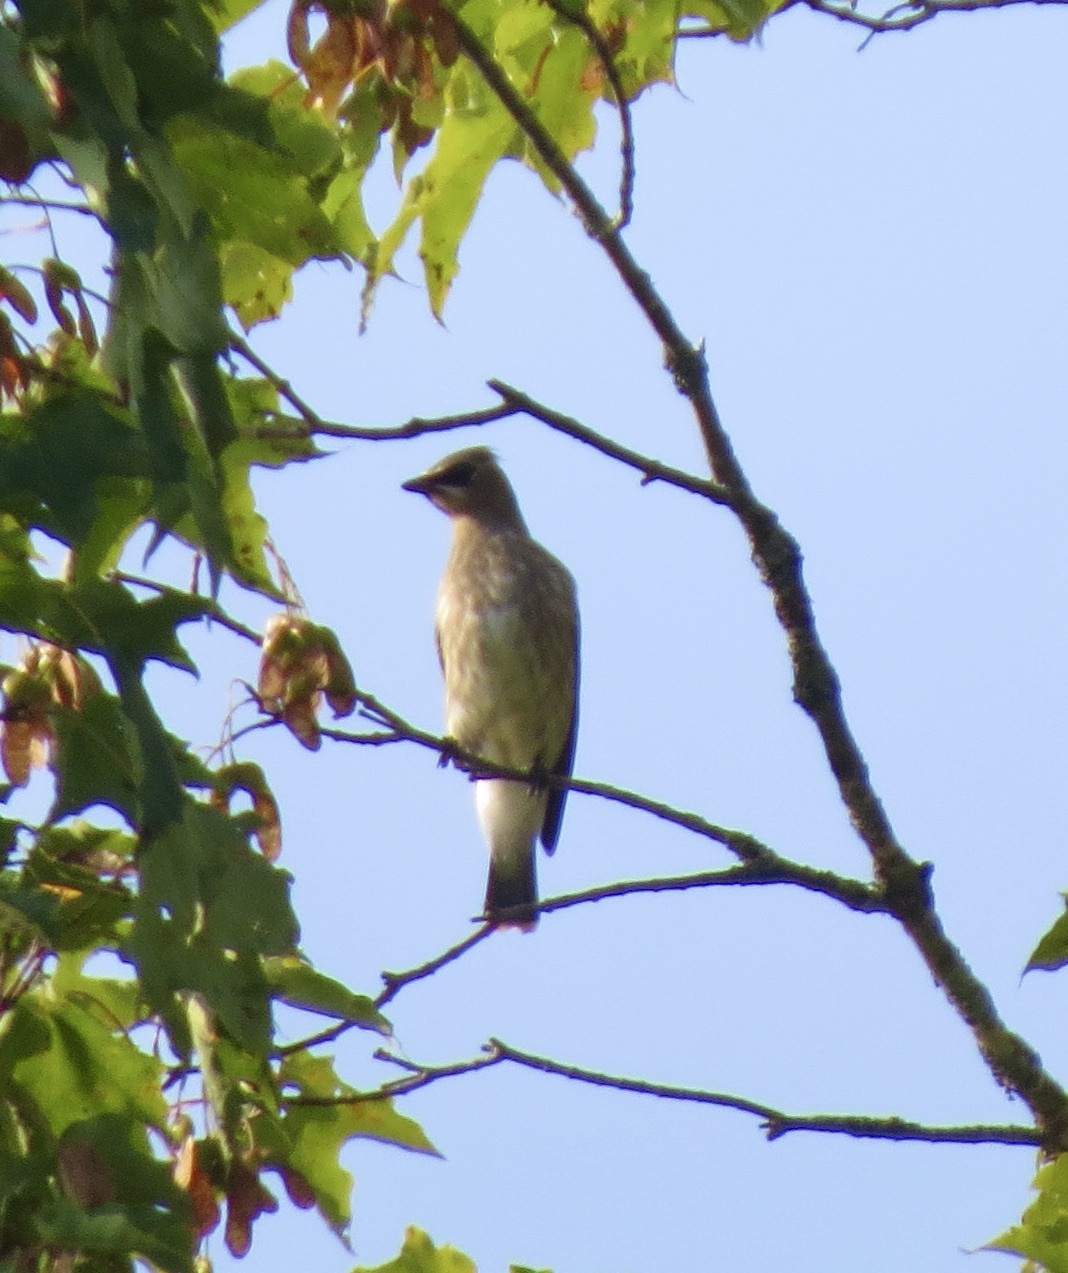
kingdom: Animalia
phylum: Chordata
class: Aves
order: Passeriformes
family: Bombycillidae
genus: Bombycilla
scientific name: Bombycilla cedrorum
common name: Cedar waxwing
